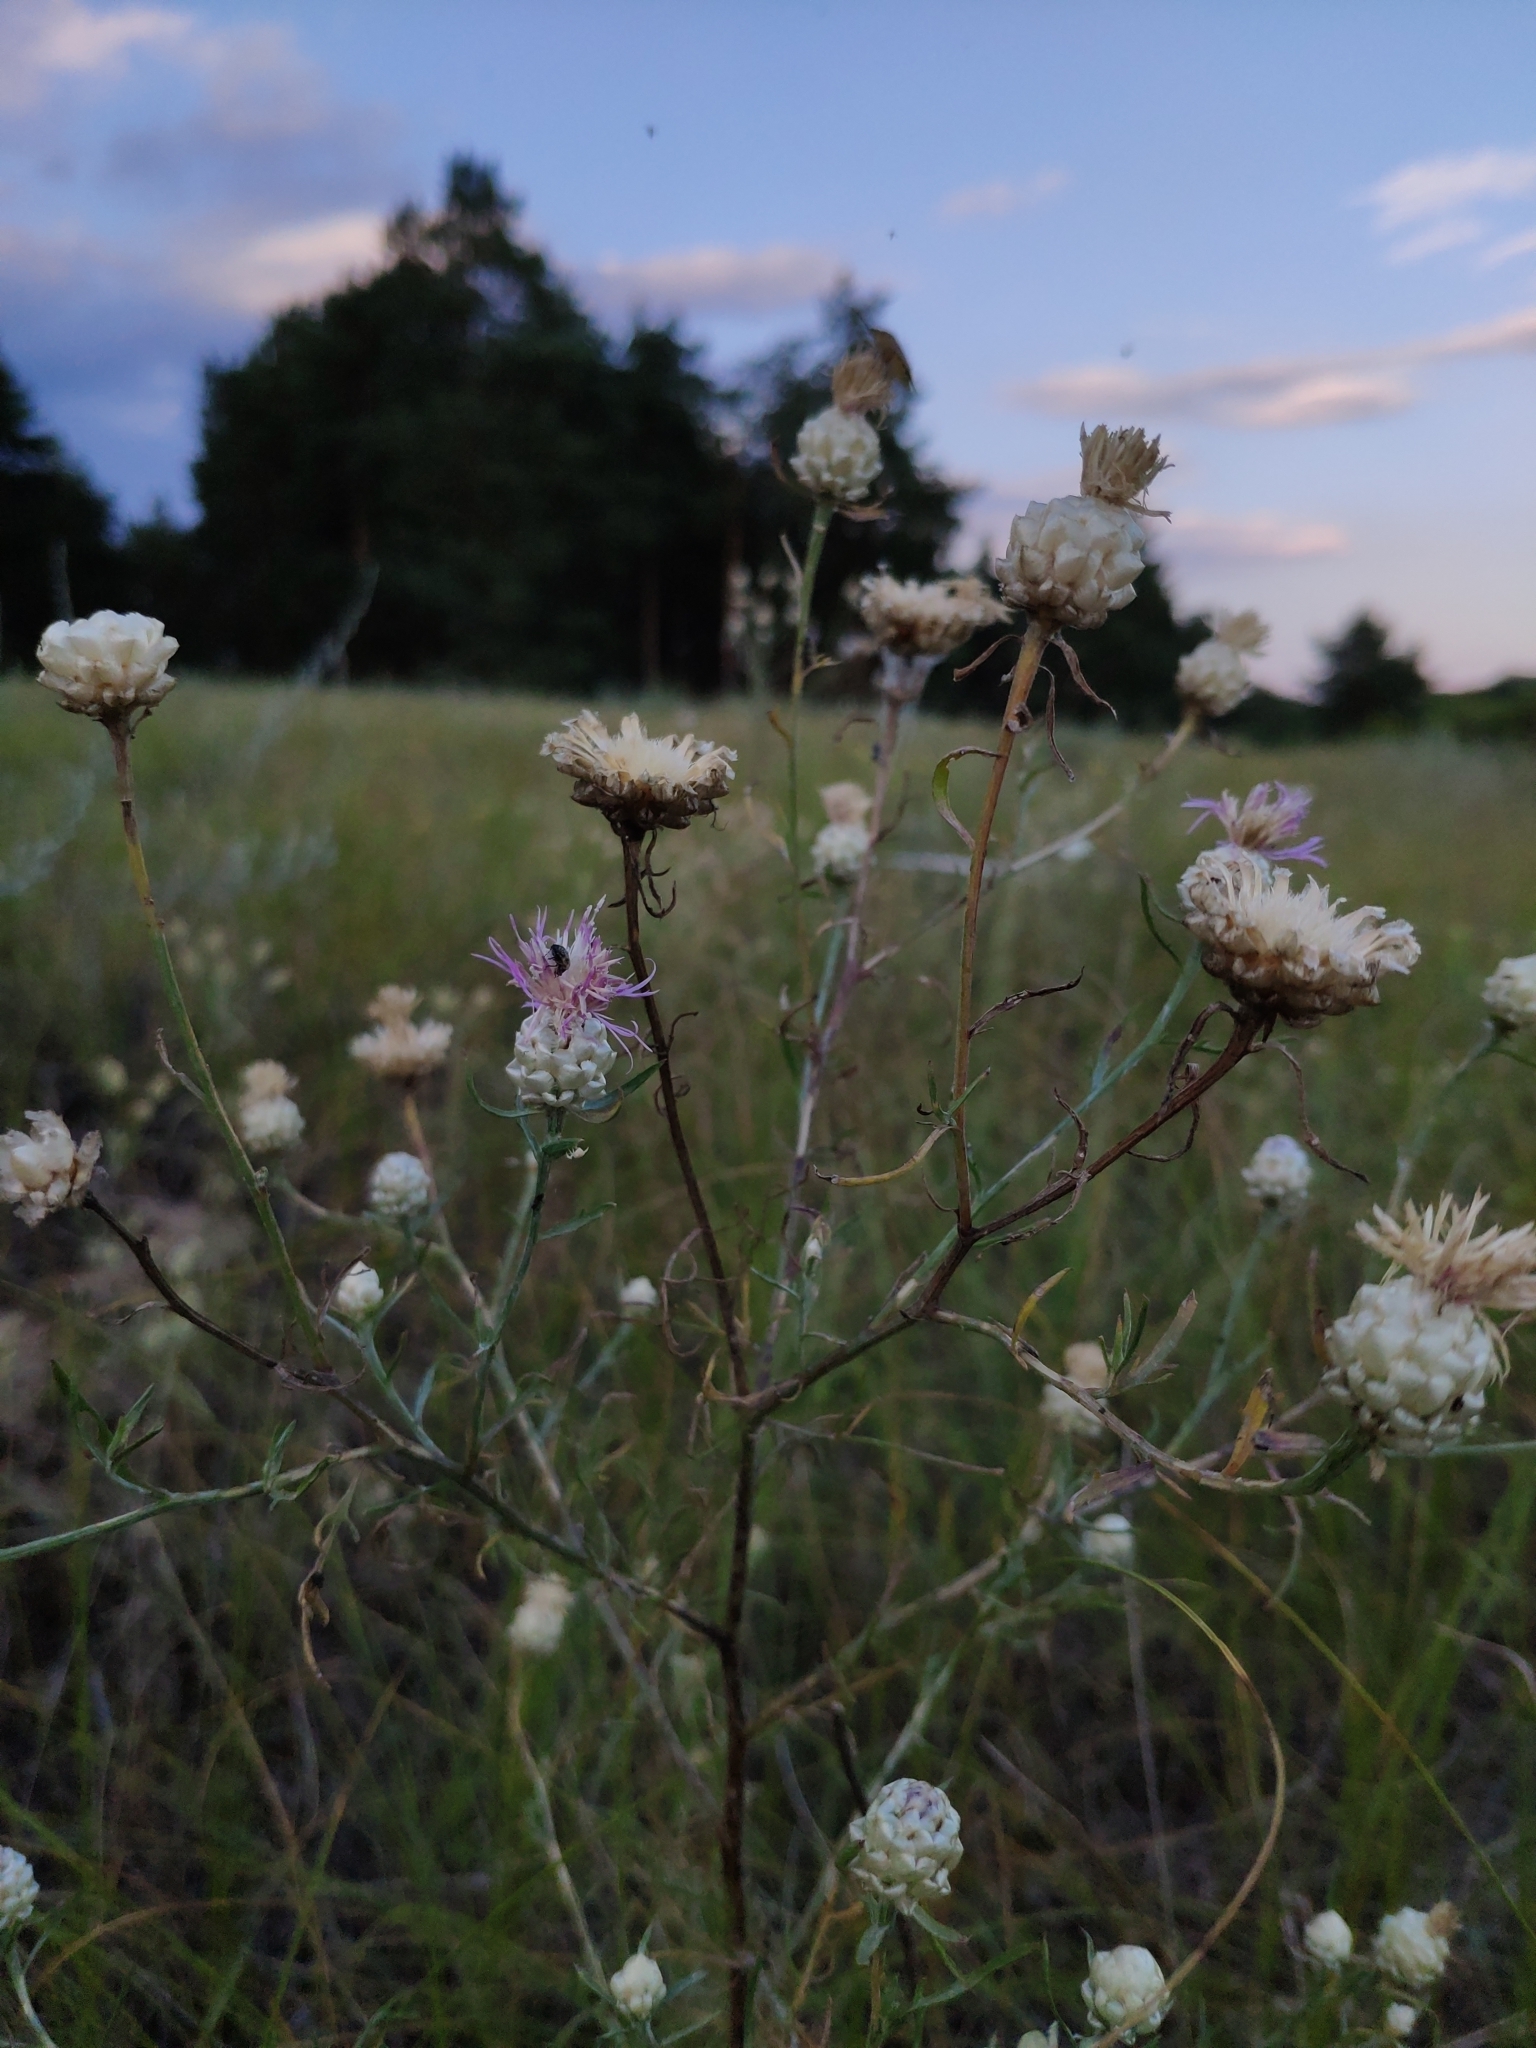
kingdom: Plantae
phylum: Tracheophyta
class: Magnoliopsida
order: Asterales
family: Asteraceae
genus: Centaurea
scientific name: Centaurea margaritalba
